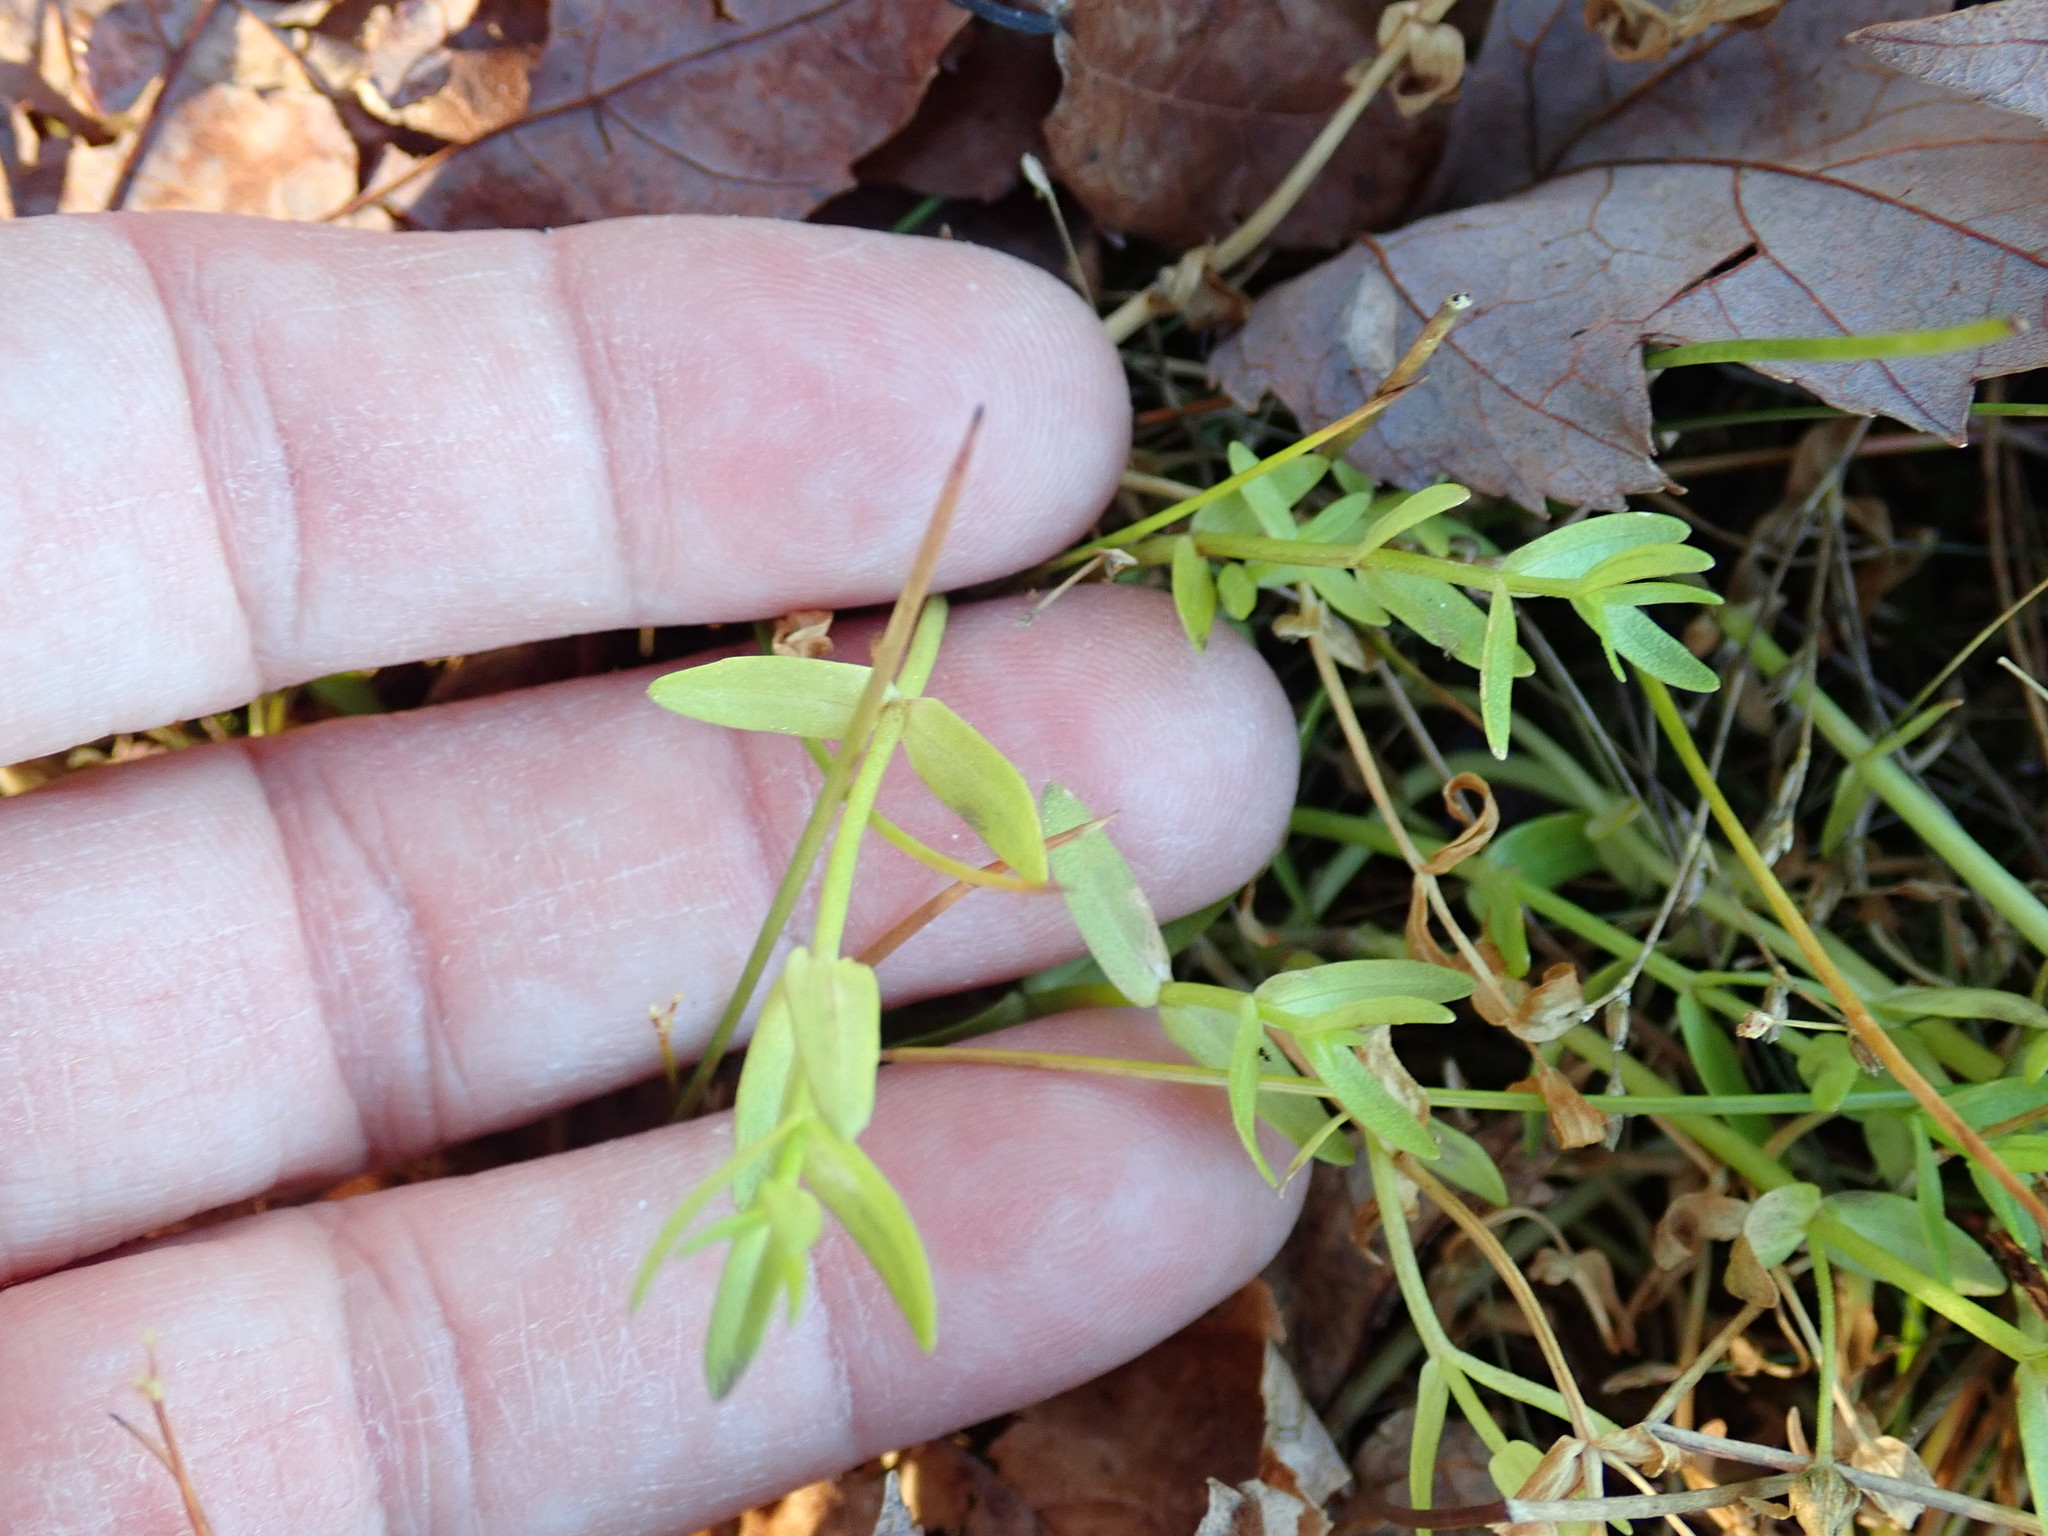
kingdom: Plantae
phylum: Tracheophyta
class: Magnoliopsida
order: Lamiales
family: Plantaginaceae
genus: Gratiola
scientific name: Gratiola lutea
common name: Golden hedge-hyssop
